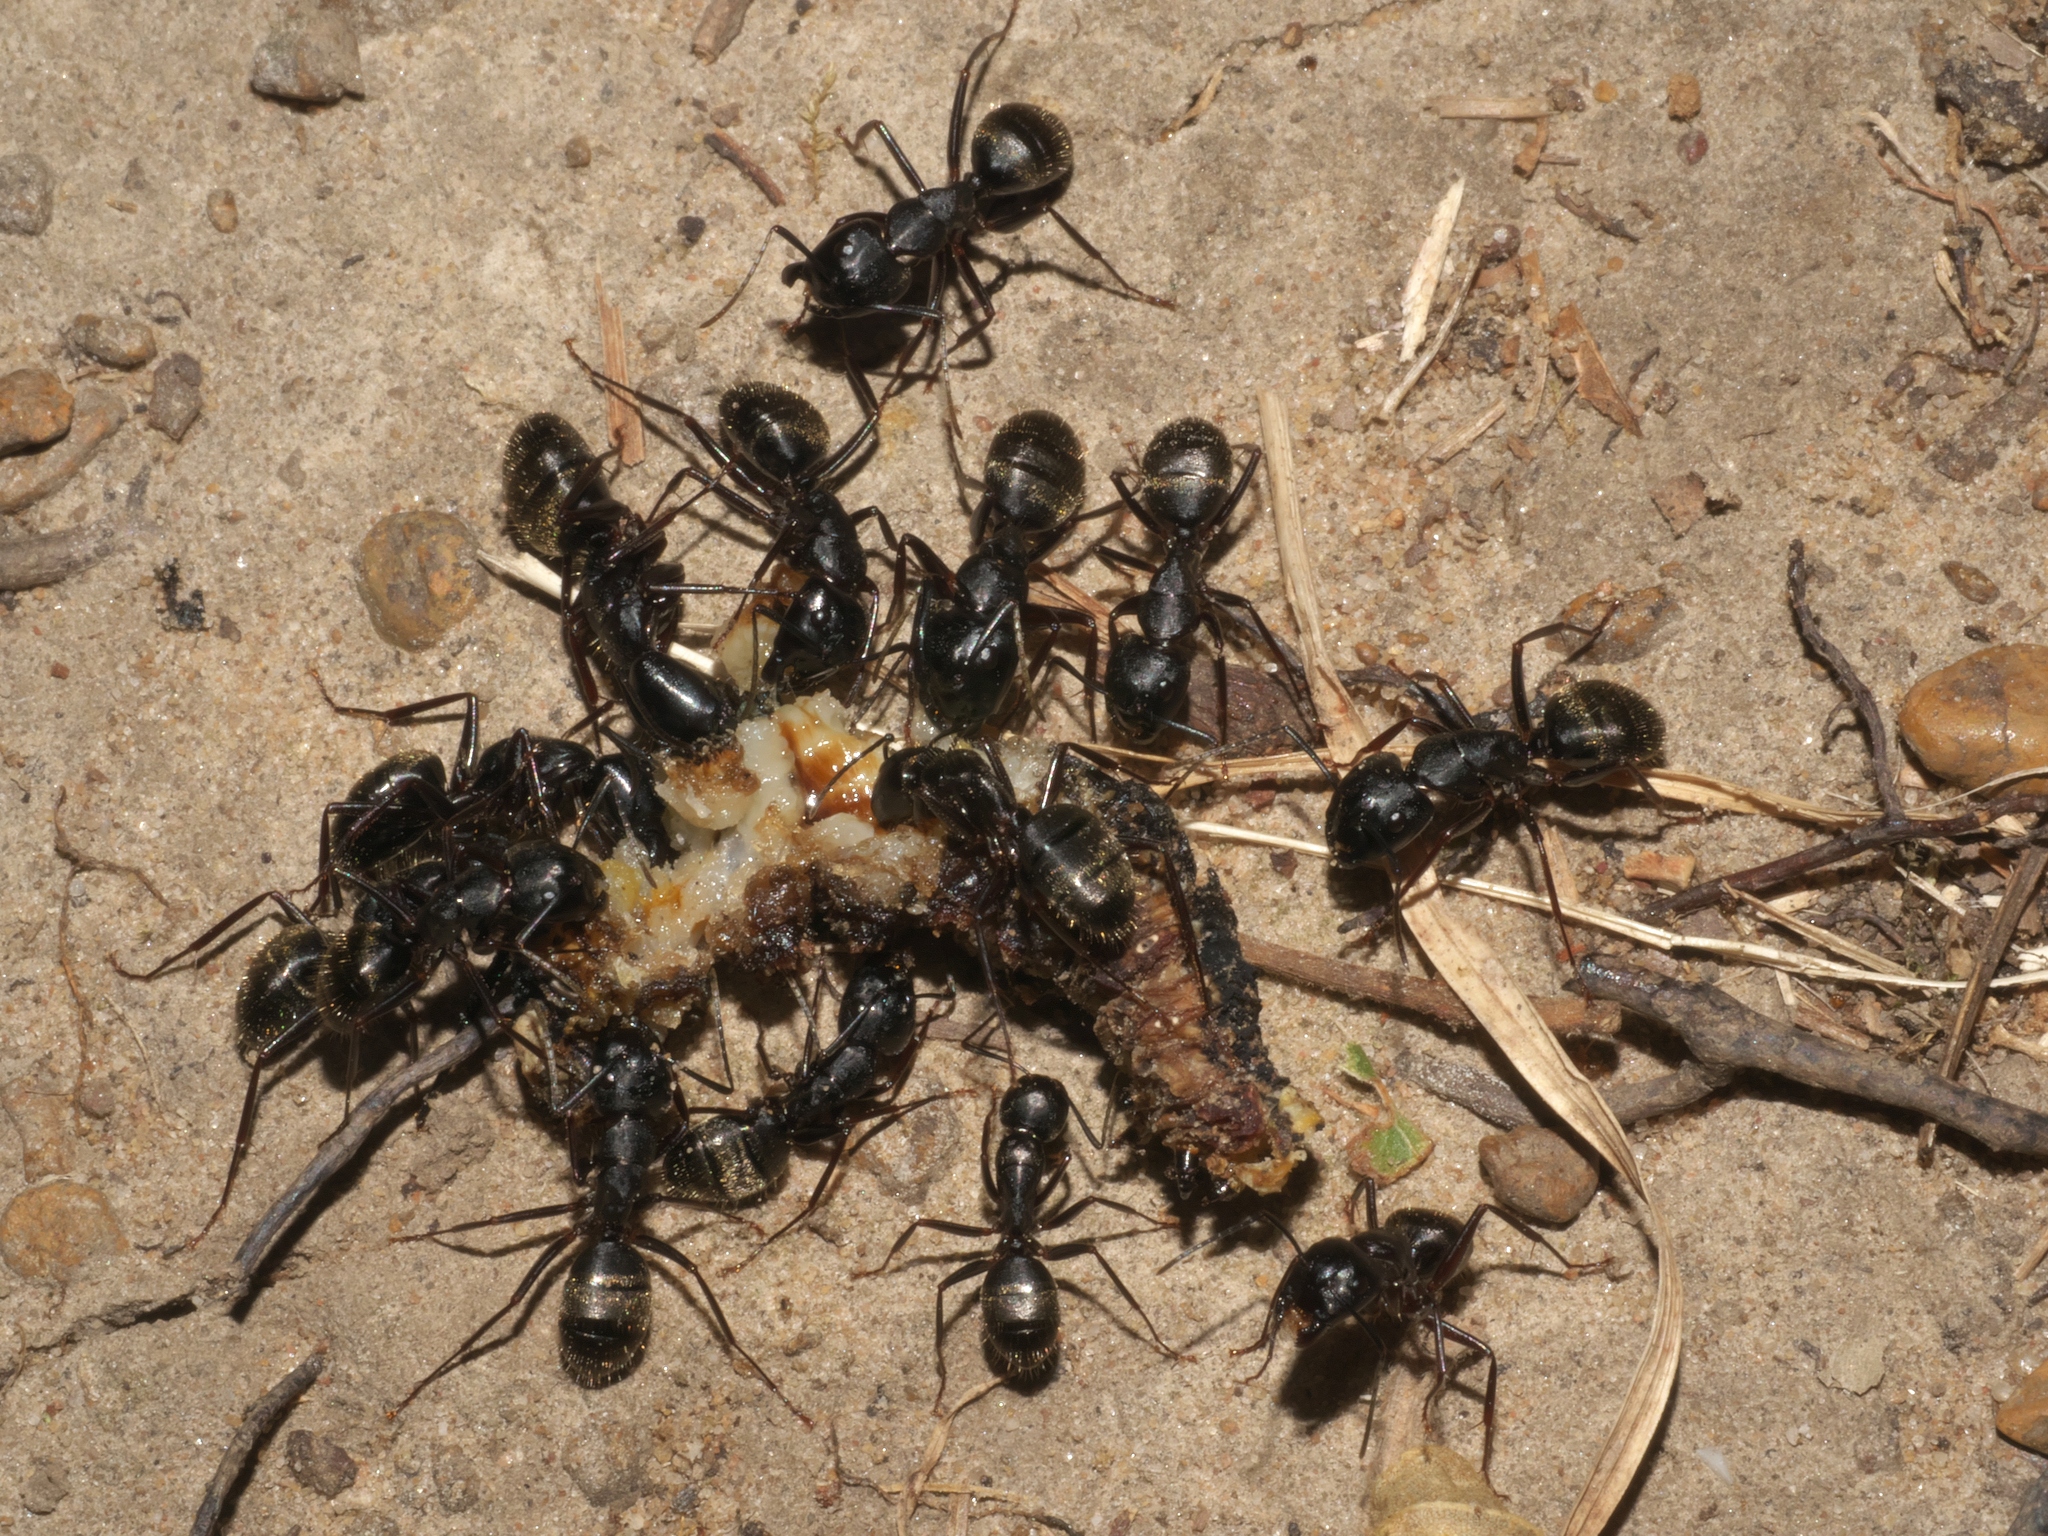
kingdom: Animalia
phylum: Arthropoda
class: Insecta
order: Hymenoptera
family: Formicidae
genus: Camponotus
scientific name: Camponotus pennsylvanicus
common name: Black carpenter ant
